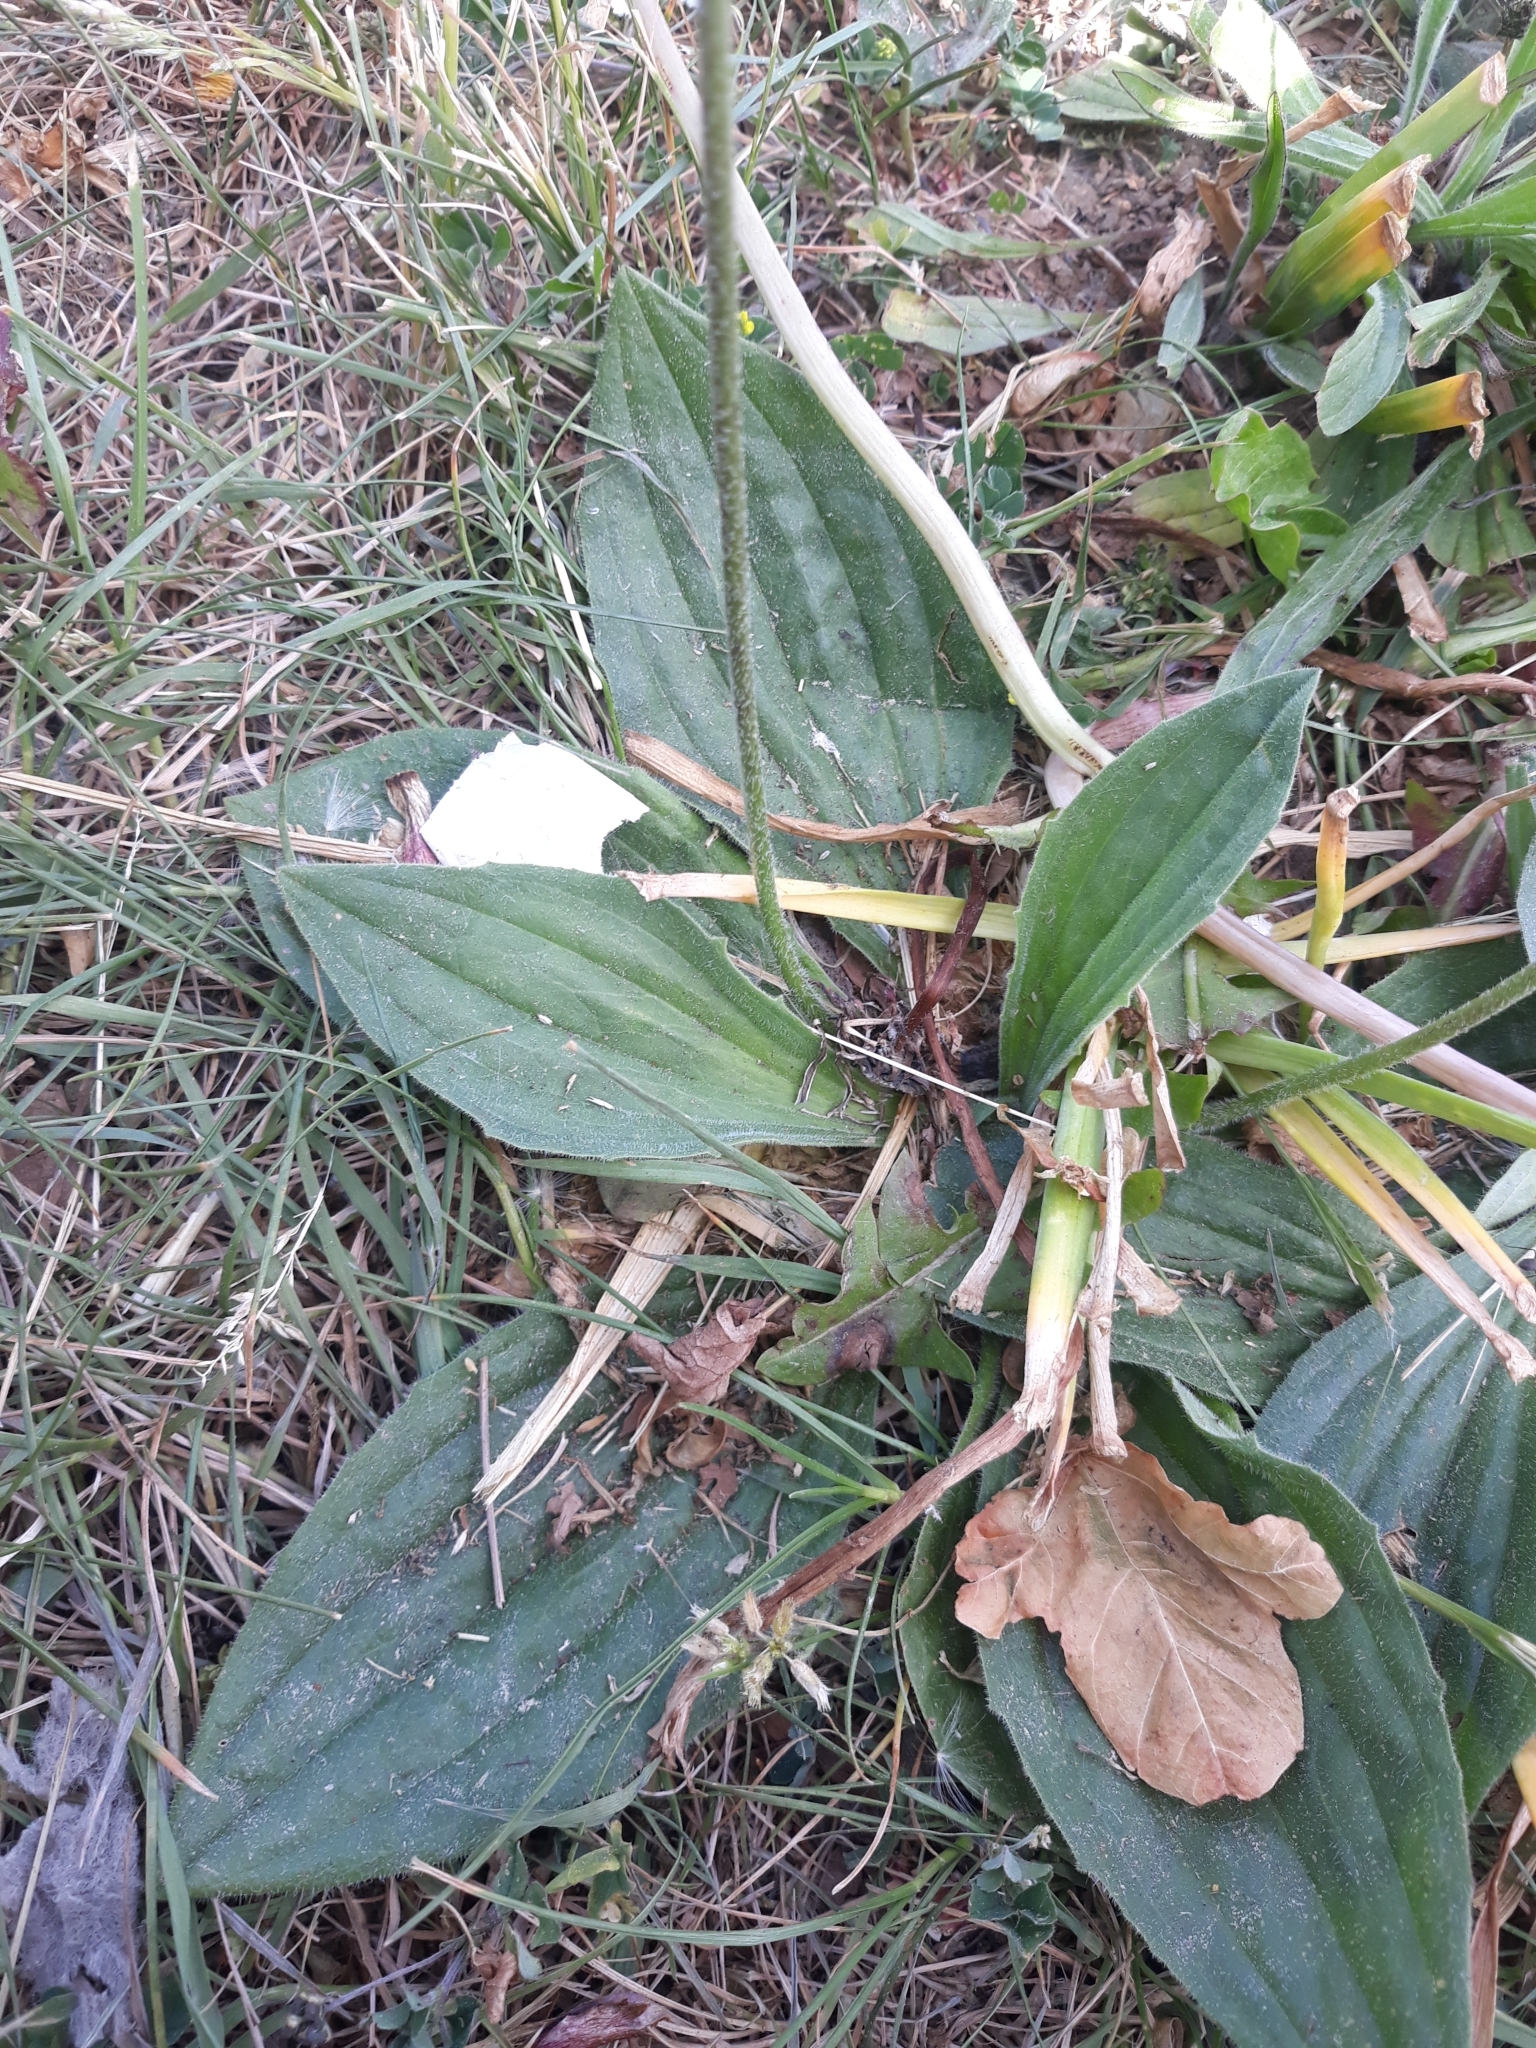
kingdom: Plantae
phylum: Tracheophyta
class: Magnoliopsida
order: Lamiales
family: Plantaginaceae
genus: Plantago
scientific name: Plantago media
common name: Hoary plantain
